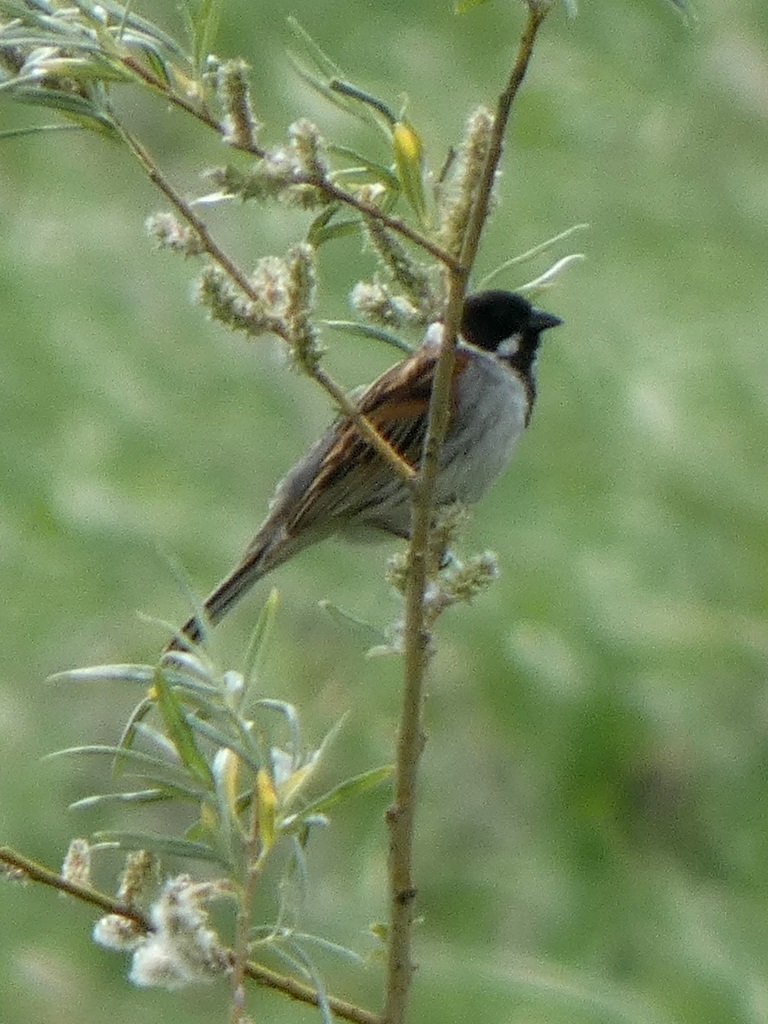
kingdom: Animalia
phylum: Chordata
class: Aves
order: Passeriformes
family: Emberizidae
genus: Emberiza
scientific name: Emberiza schoeniclus
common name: Reed bunting
